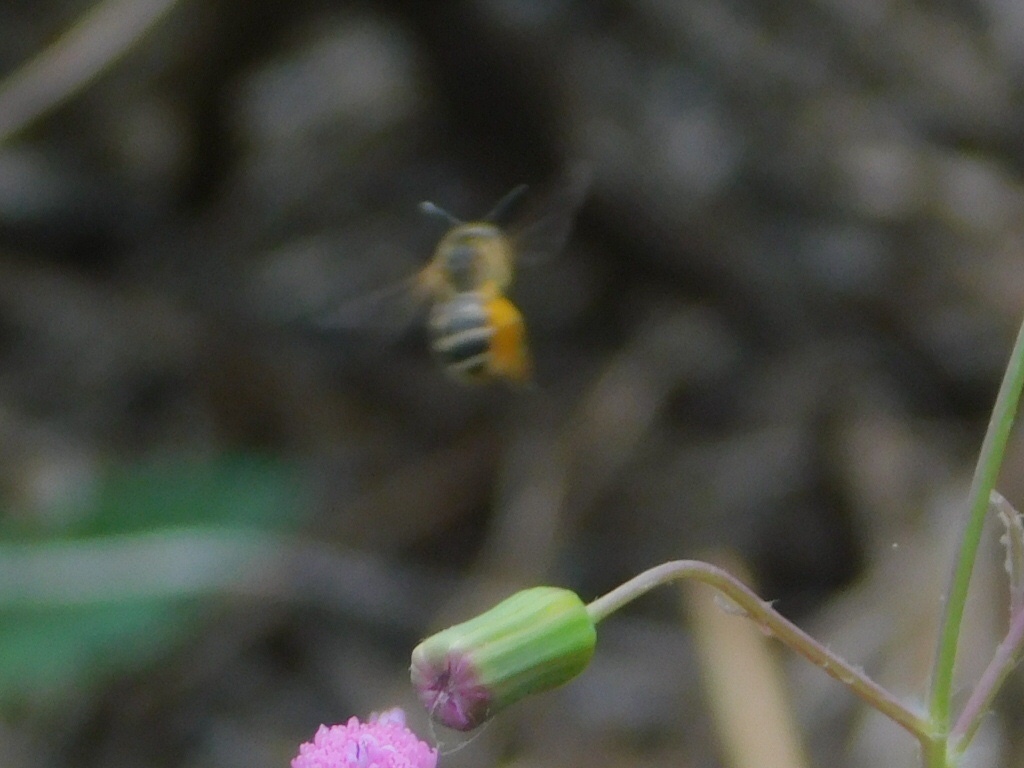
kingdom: Animalia
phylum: Arthropoda
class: Insecta
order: Hymenoptera
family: Halictidae
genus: Halictus
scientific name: Halictus poeyi
